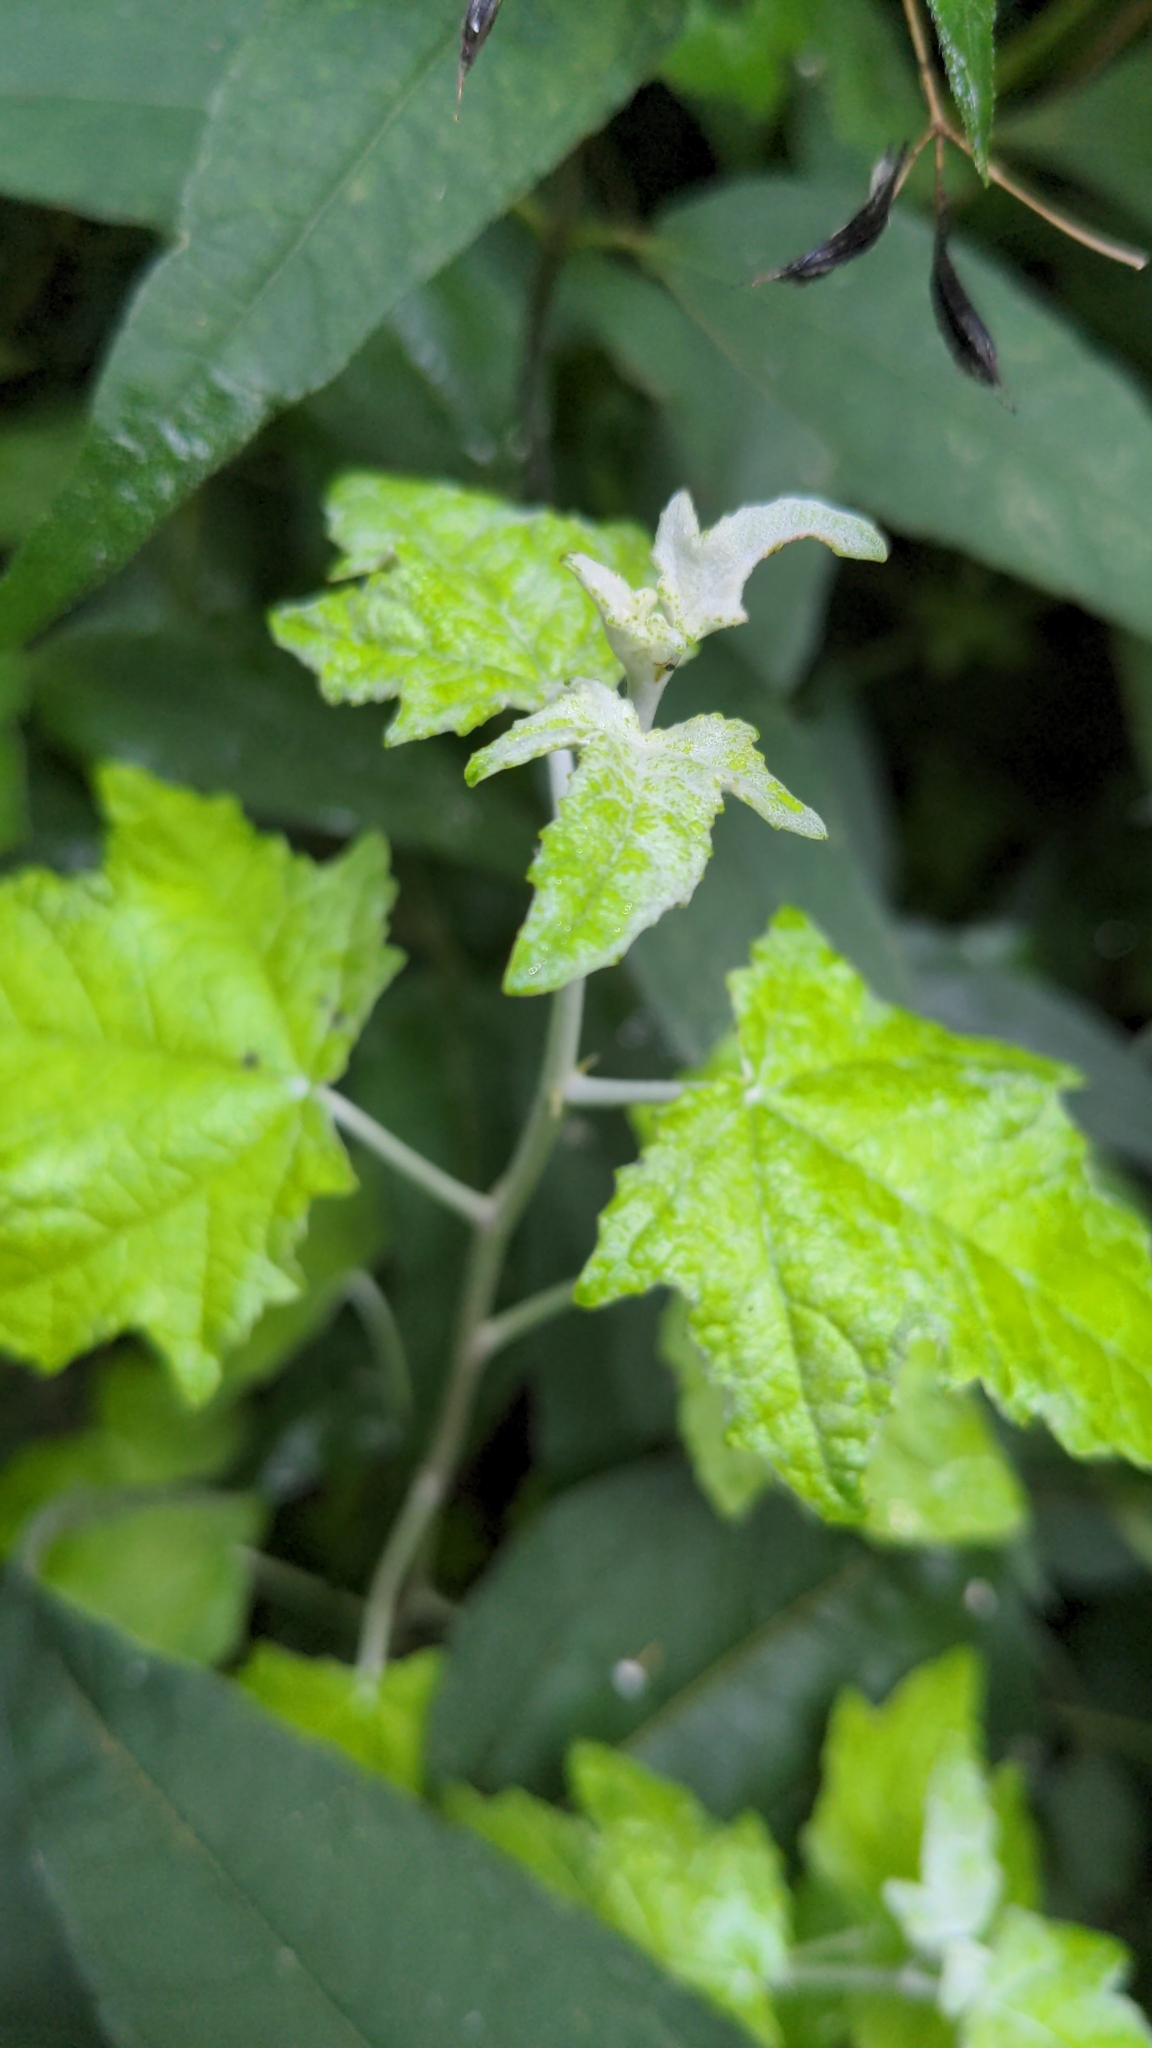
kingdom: Plantae
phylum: Tracheophyta
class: Magnoliopsida
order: Malpighiales
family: Salicaceae
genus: Populus
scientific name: Populus alba
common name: White poplar
